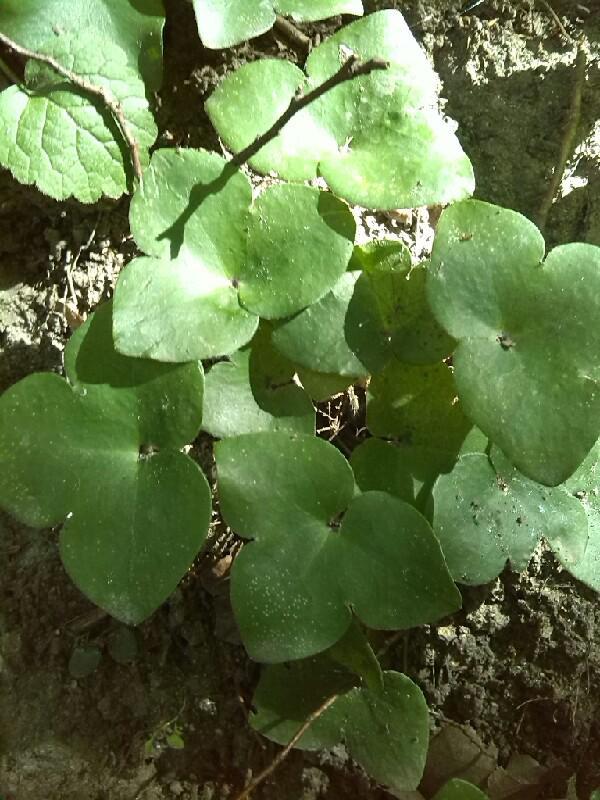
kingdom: Plantae
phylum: Tracheophyta
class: Magnoliopsida
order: Ranunculales
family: Ranunculaceae
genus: Hepatica
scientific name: Hepatica nobilis
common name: Liverleaf
